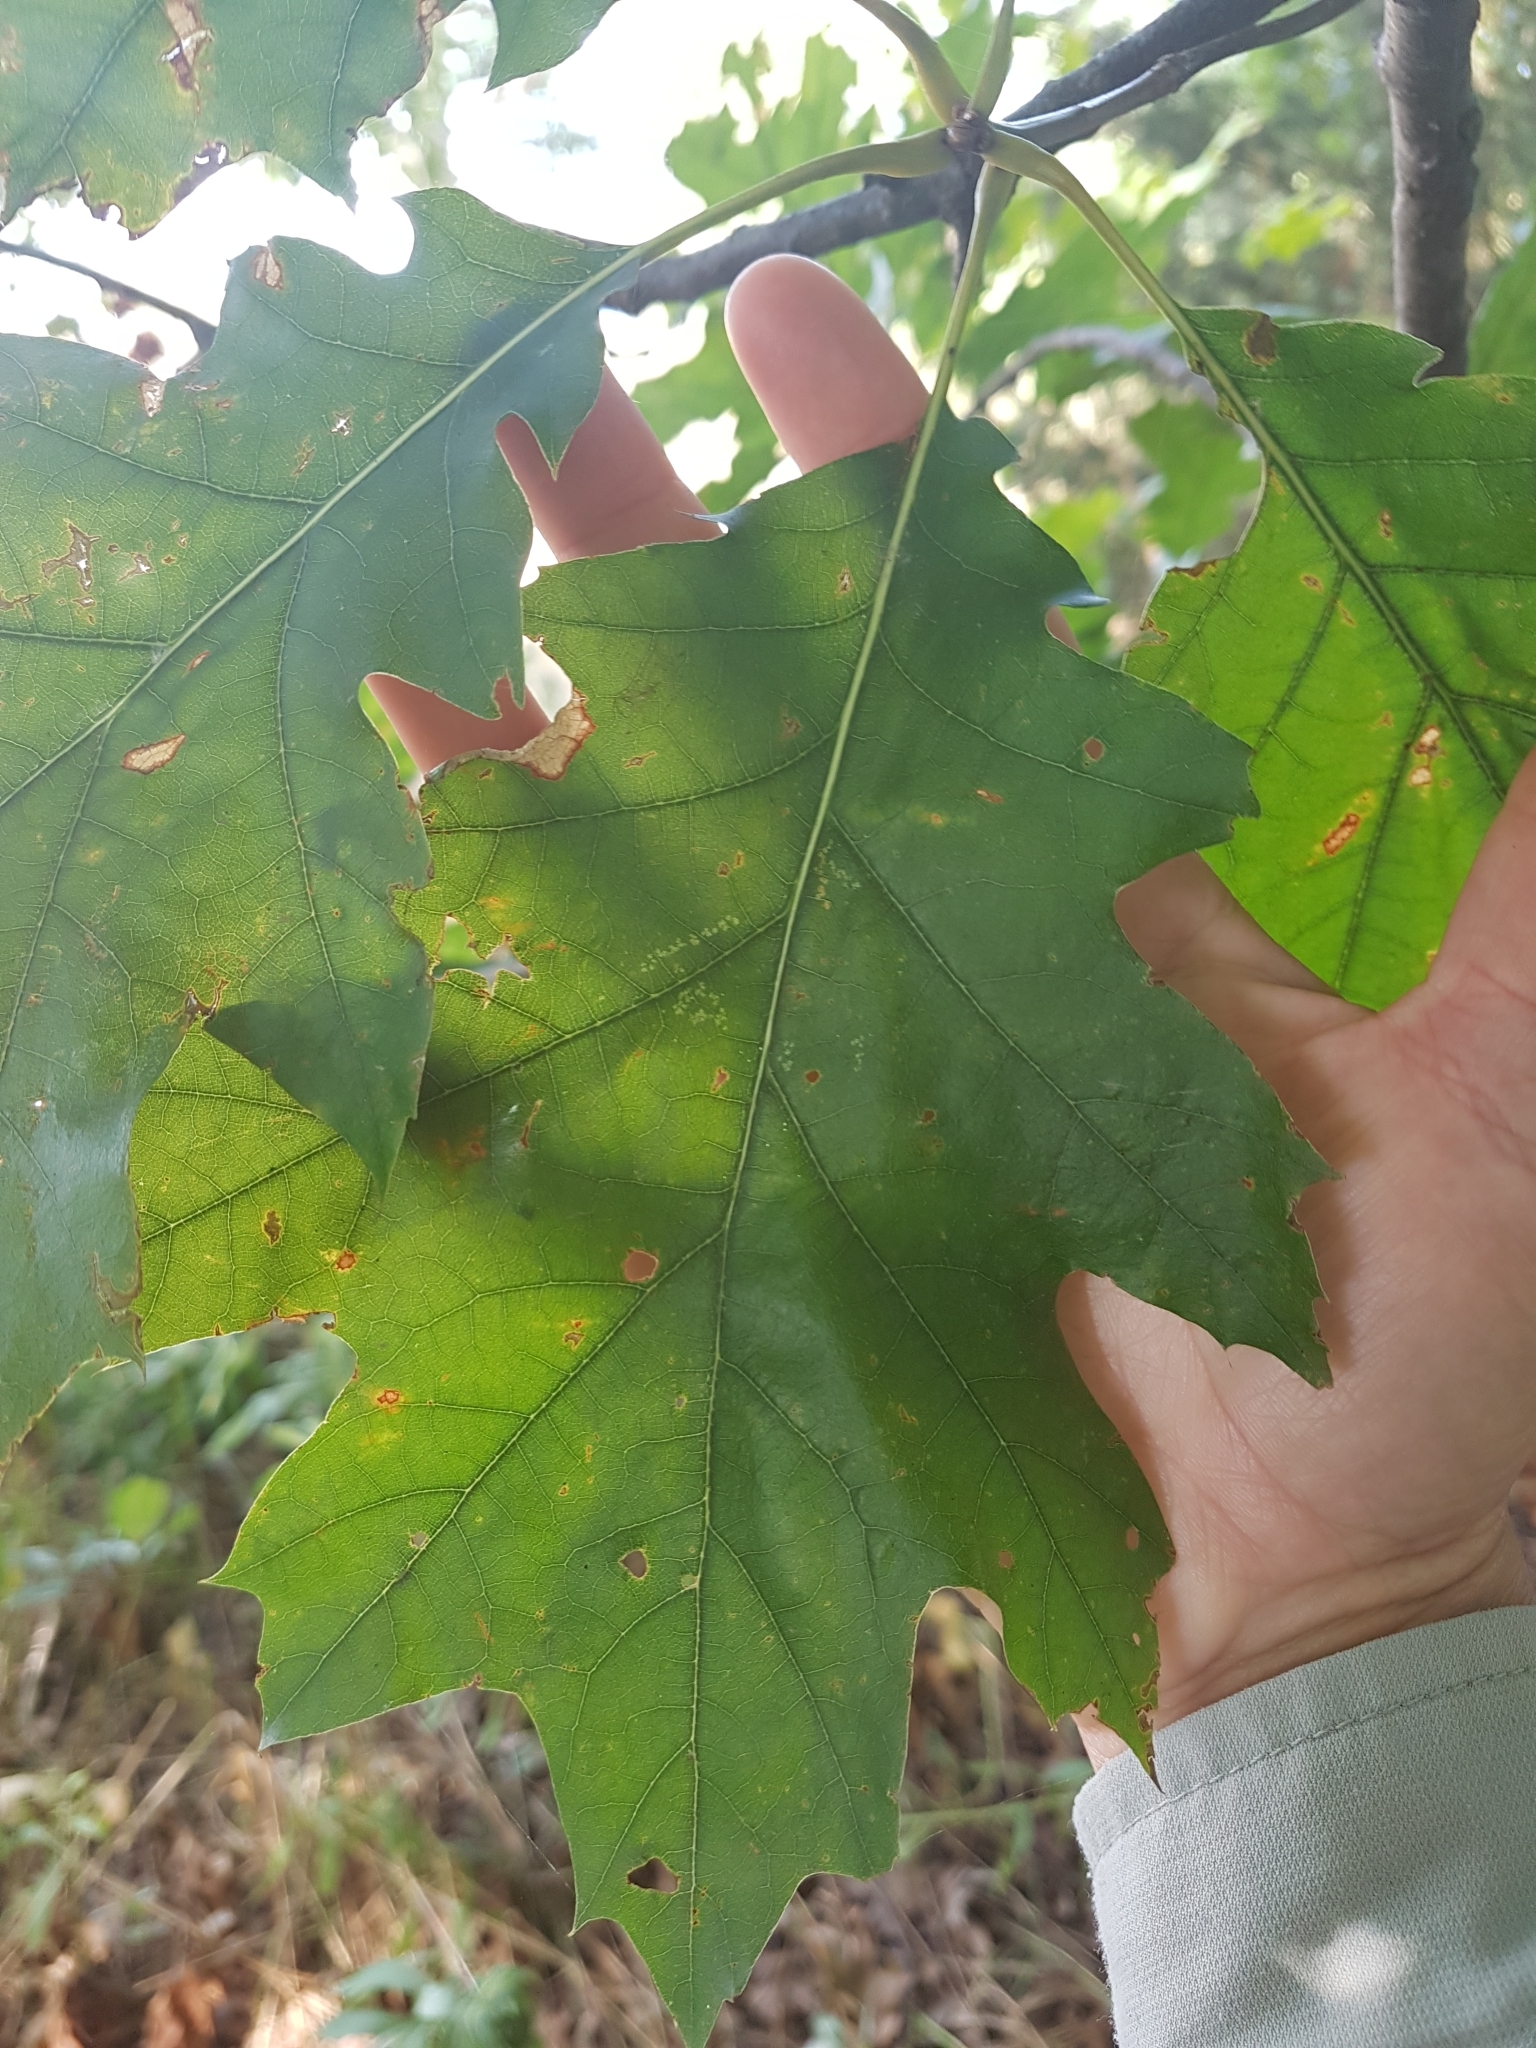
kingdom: Plantae
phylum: Tracheophyta
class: Magnoliopsida
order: Fagales
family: Fagaceae
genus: Quercus
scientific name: Quercus rubra
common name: Red oak
